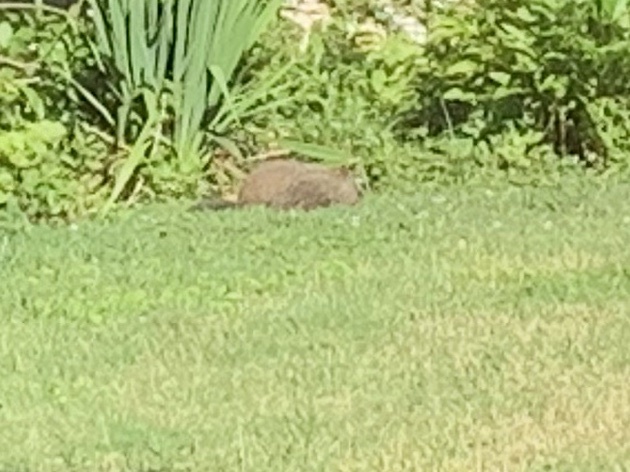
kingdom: Animalia
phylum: Chordata
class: Mammalia
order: Rodentia
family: Sciuridae
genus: Marmota
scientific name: Marmota monax
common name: Groundhog
